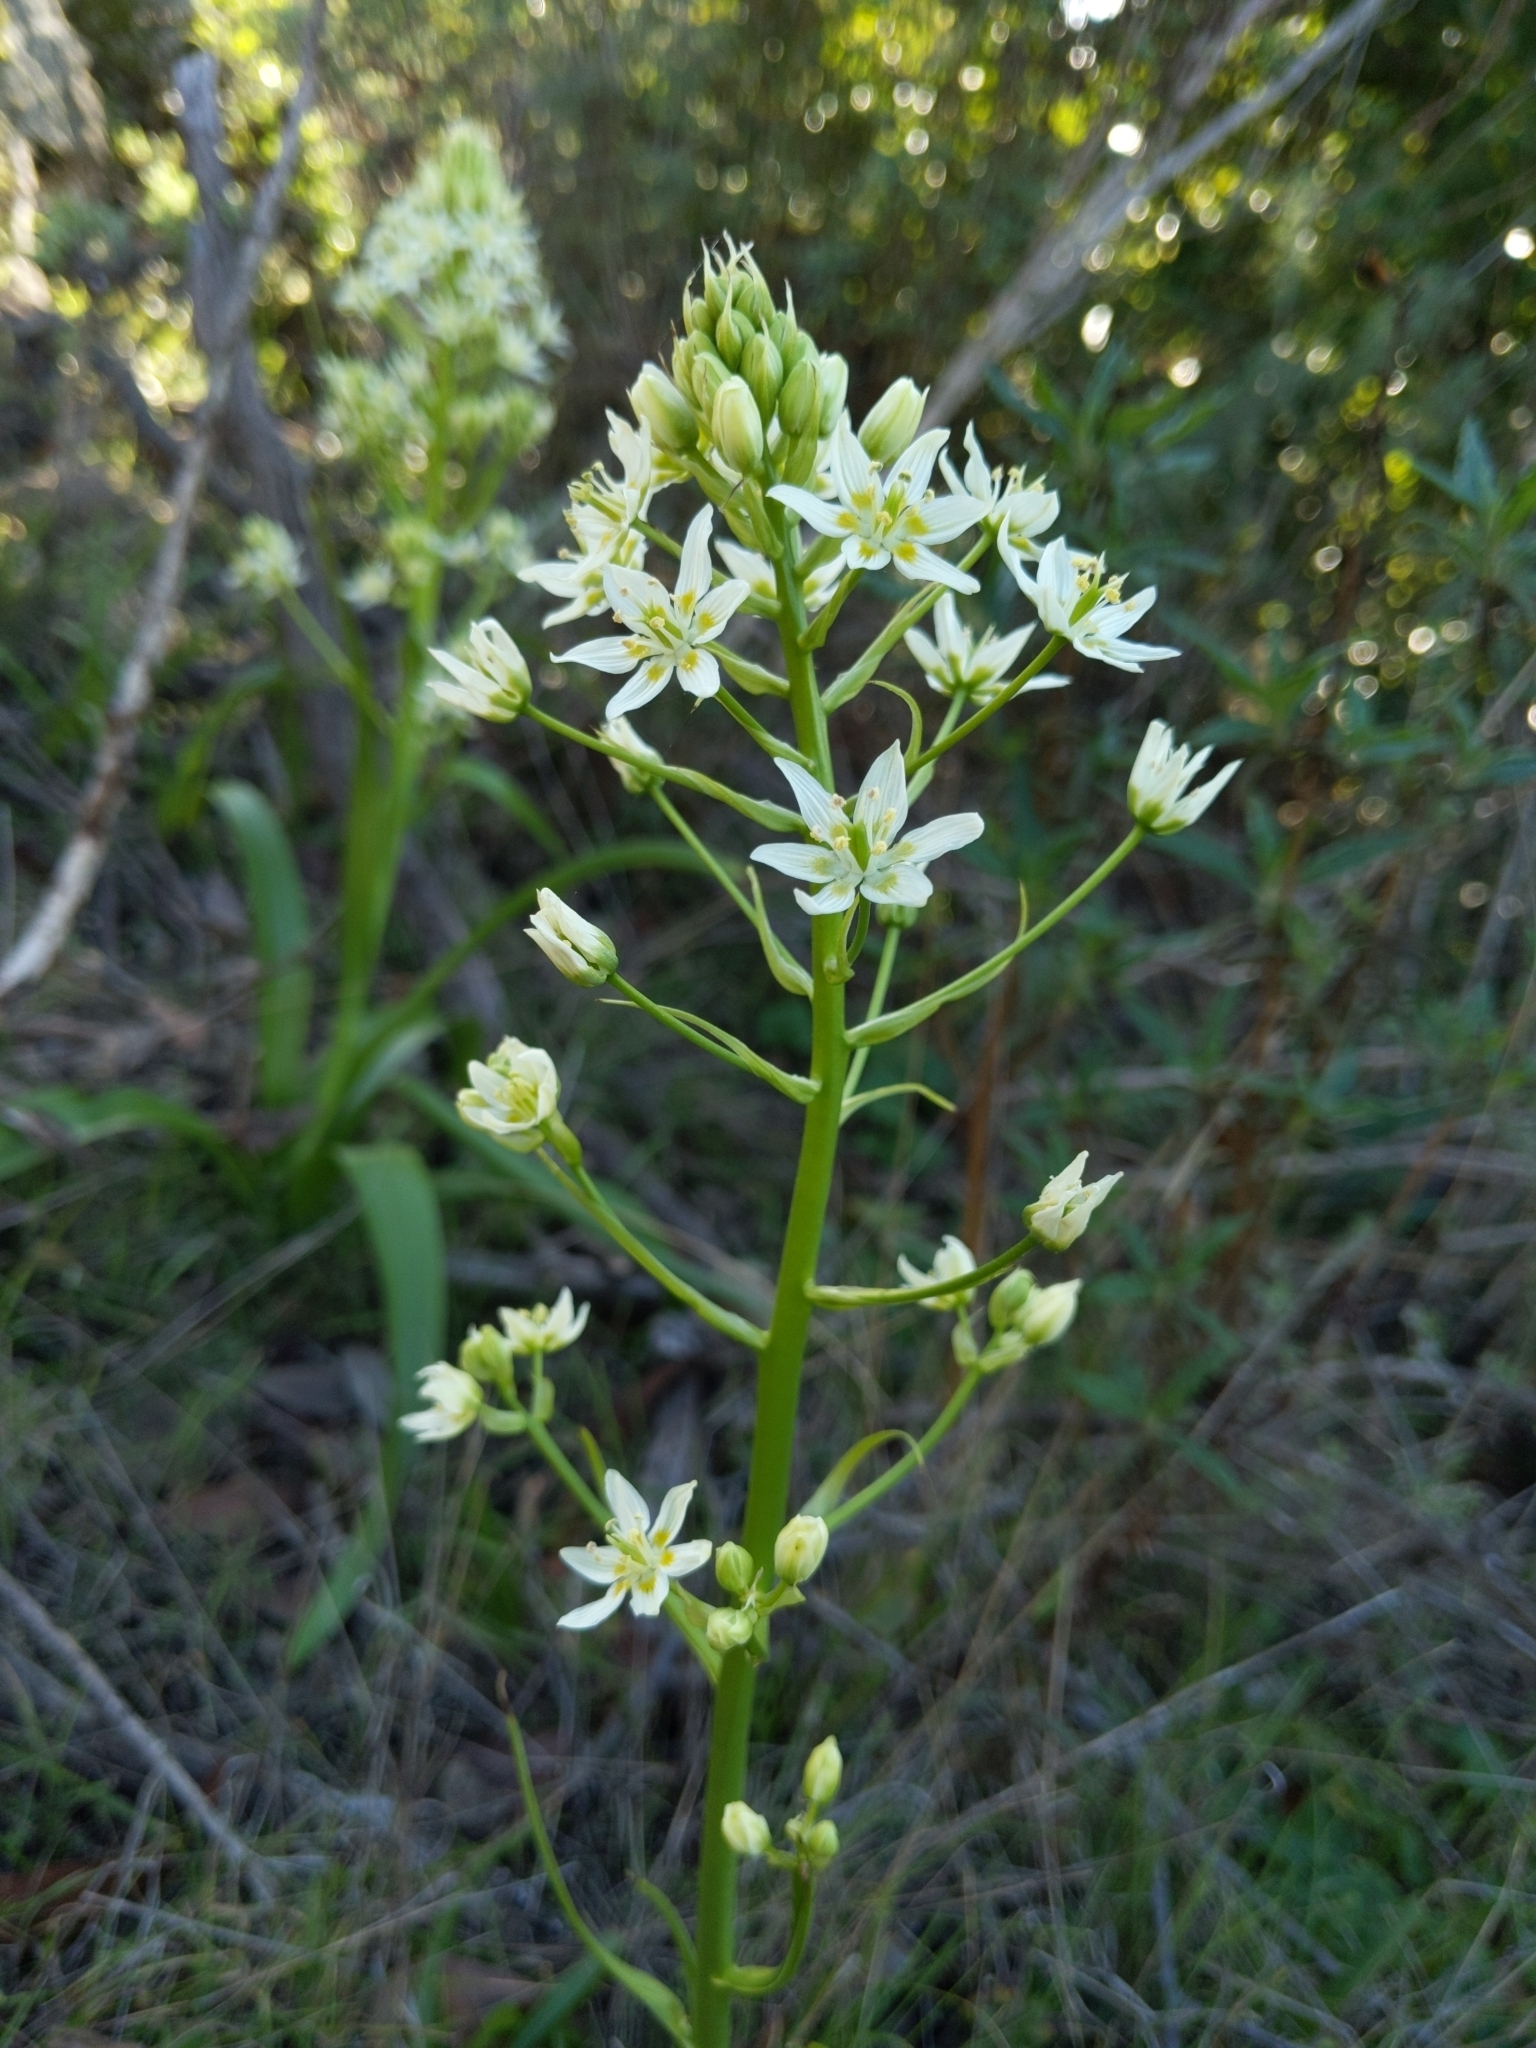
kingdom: Plantae
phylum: Tracheophyta
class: Liliopsida
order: Liliales
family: Melanthiaceae
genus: Toxicoscordion
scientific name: Toxicoscordion fremontii
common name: Fremont's death camas
